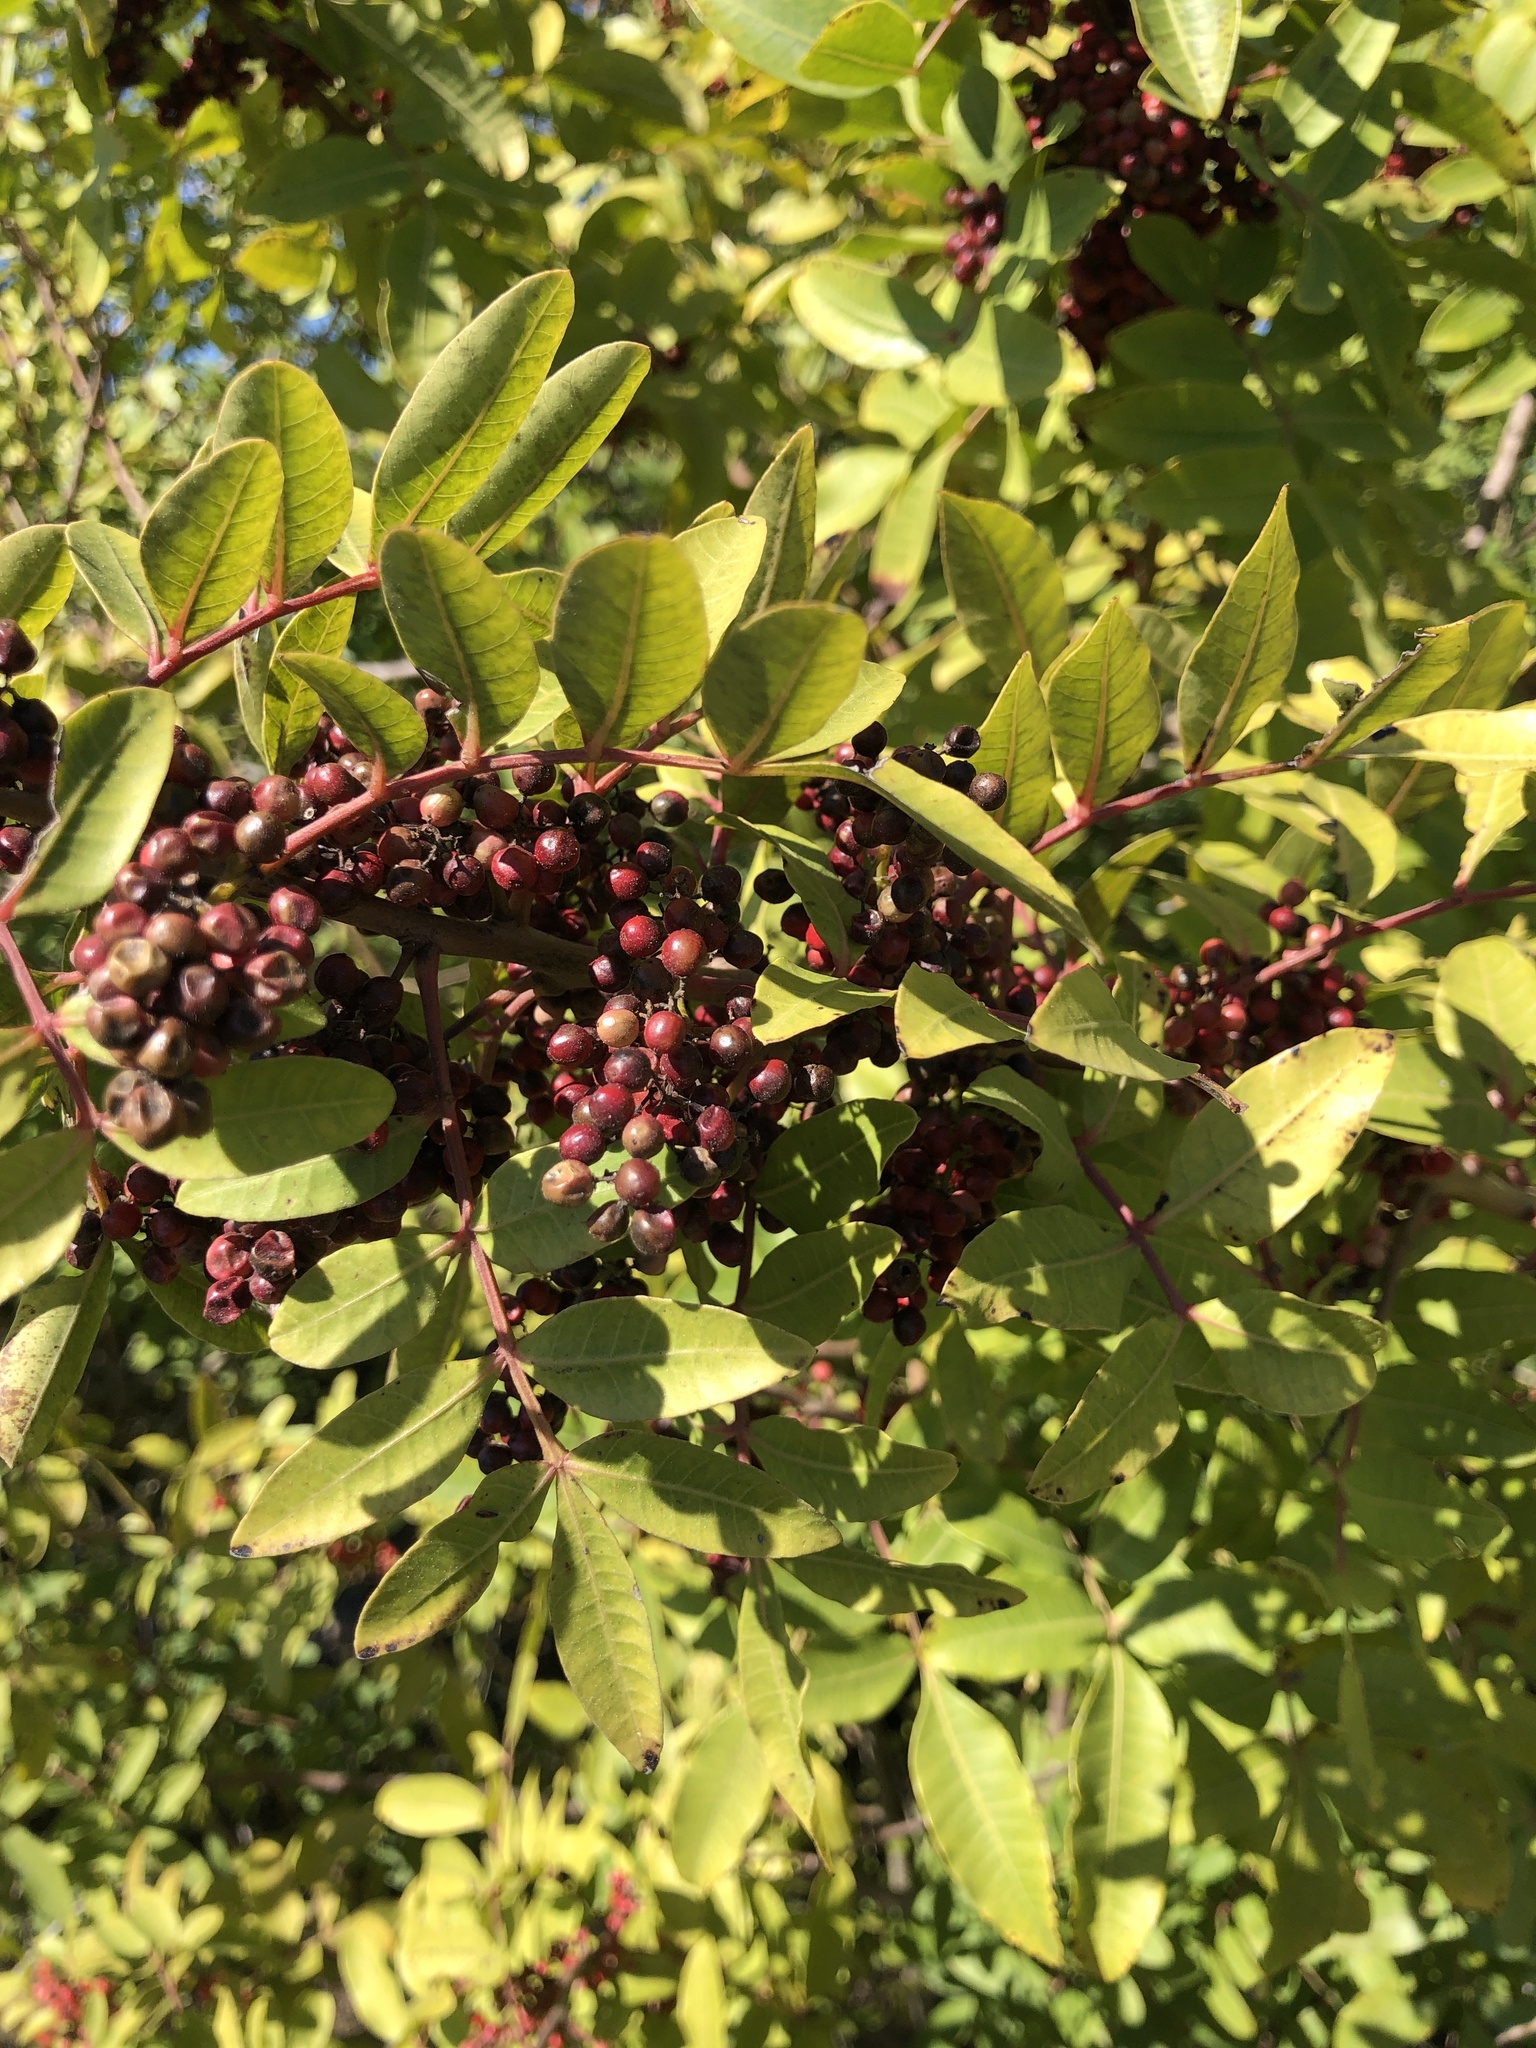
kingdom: Plantae
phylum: Tracheophyta
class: Magnoliopsida
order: Sapindales
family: Anacardiaceae
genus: Schinus
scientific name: Schinus terebinthifolia
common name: Brazilian peppertree
